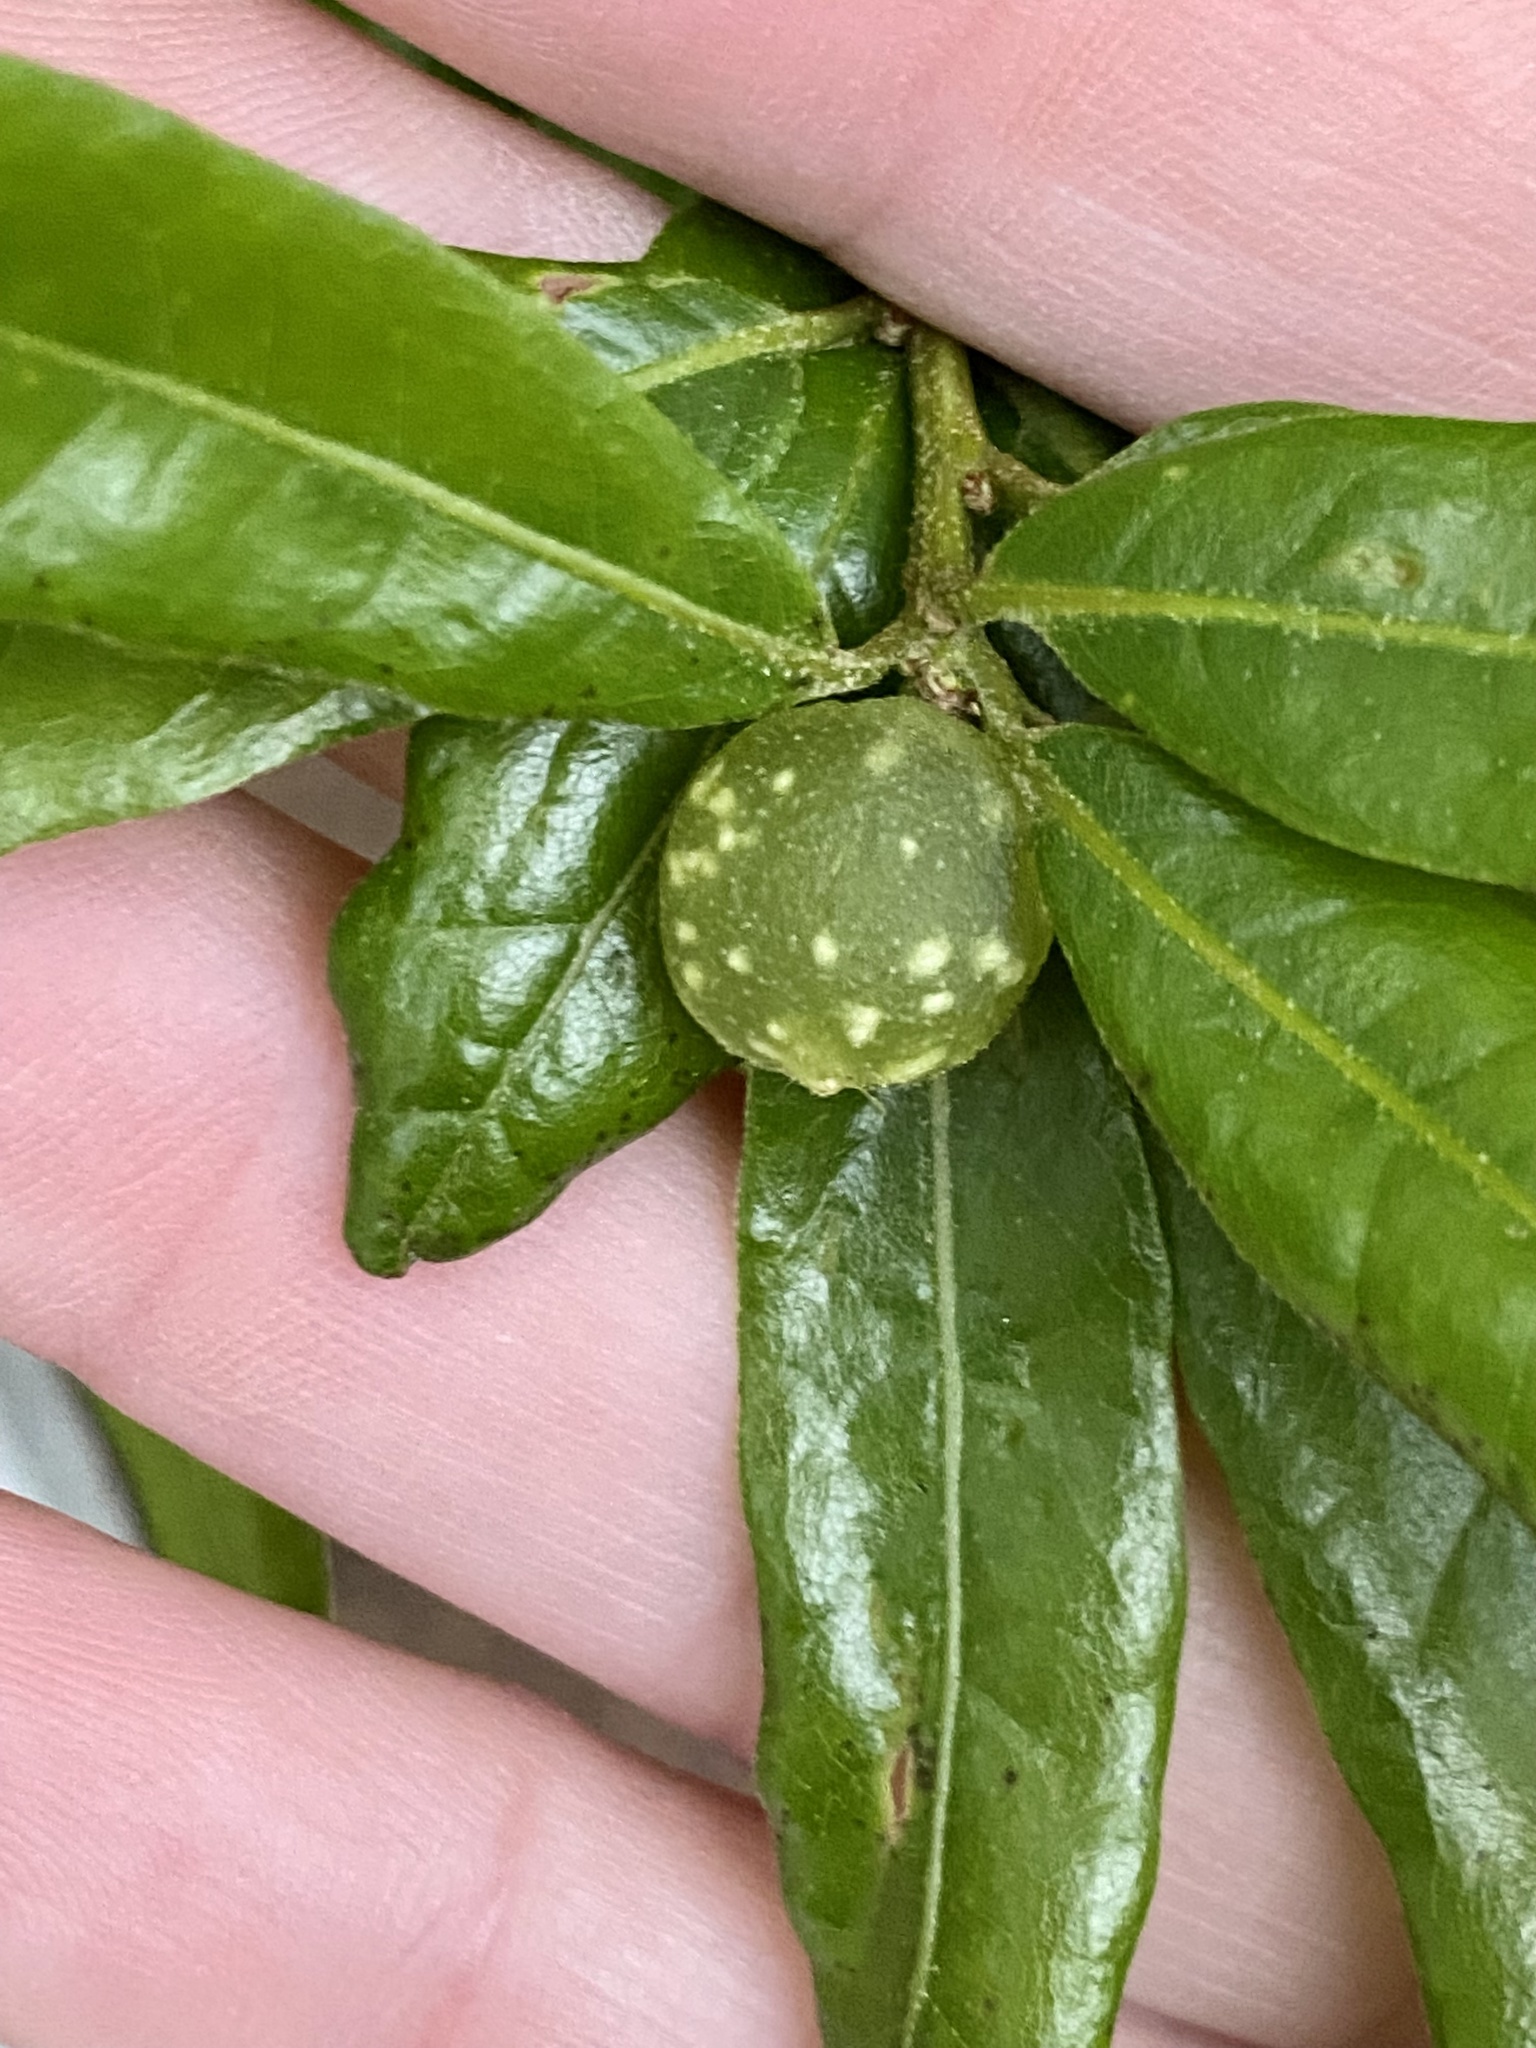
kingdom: Animalia
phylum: Arthropoda
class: Insecta
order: Hymenoptera
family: Cynipidae
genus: Dryocosmus
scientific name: Dryocosmus
